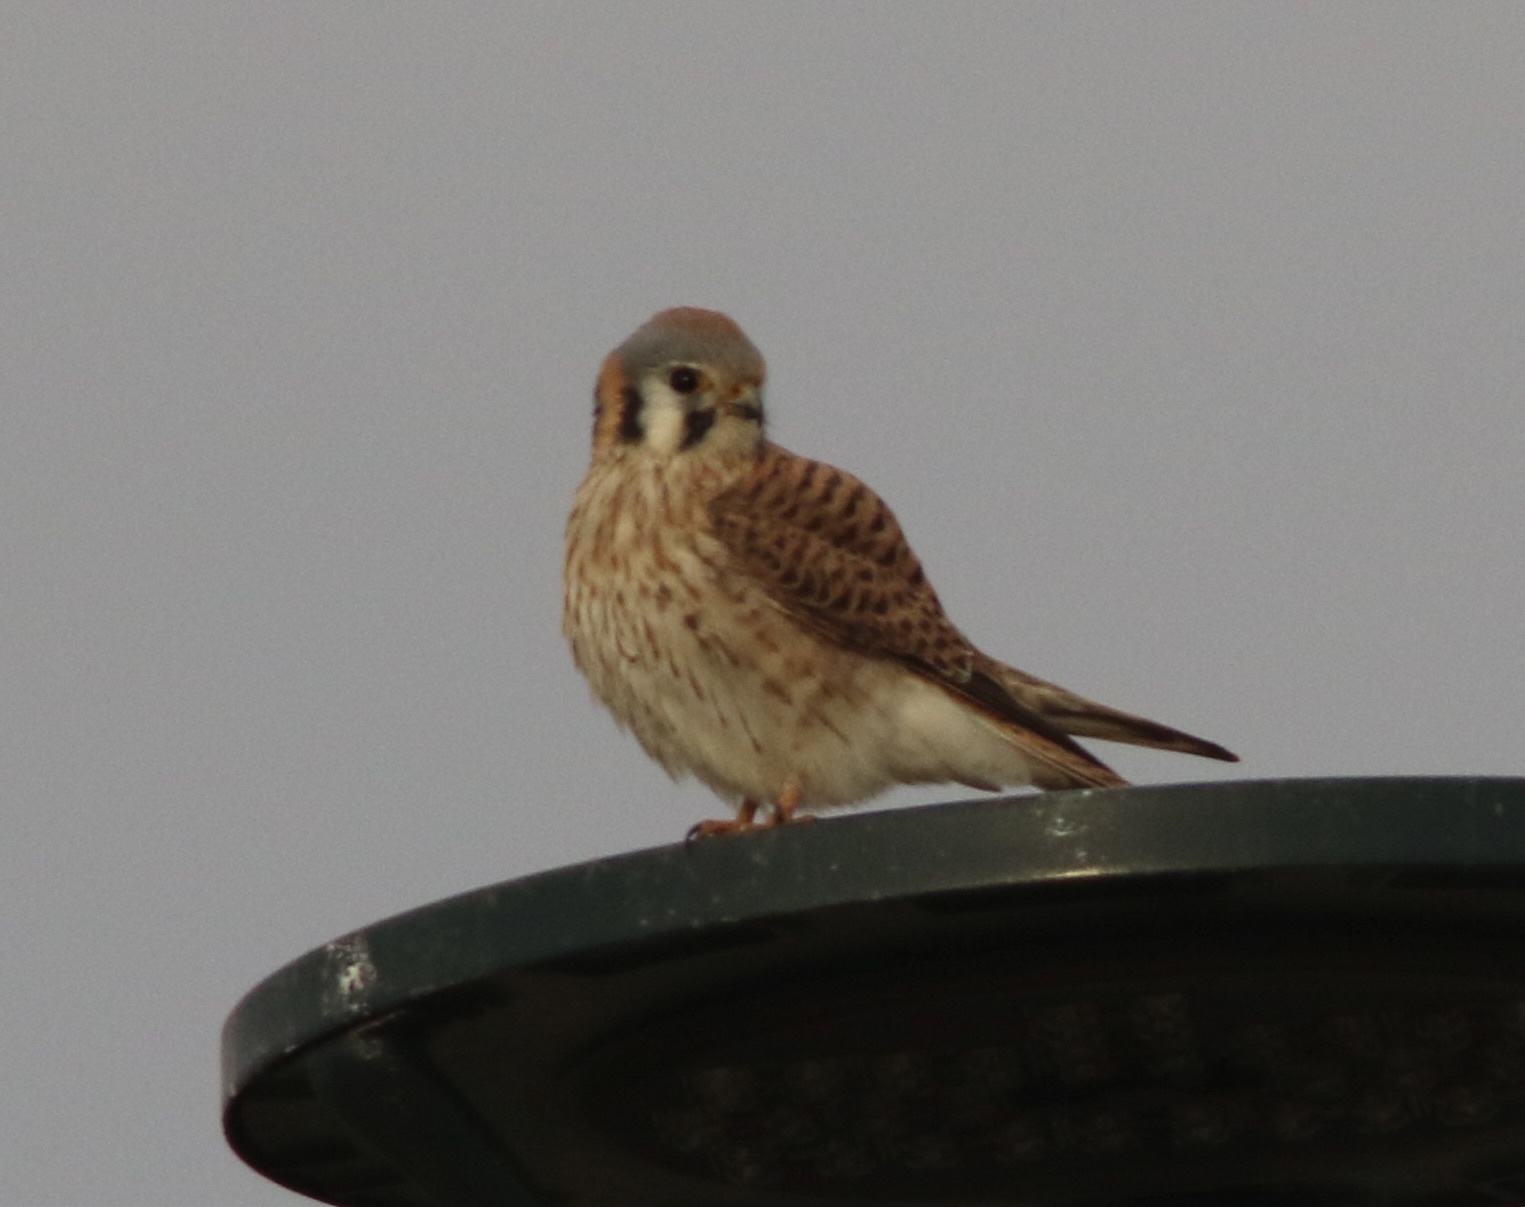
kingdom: Animalia
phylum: Chordata
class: Aves
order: Falconiformes
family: Falconidae
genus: Falco
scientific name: Falco sparverius
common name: American kestrel
